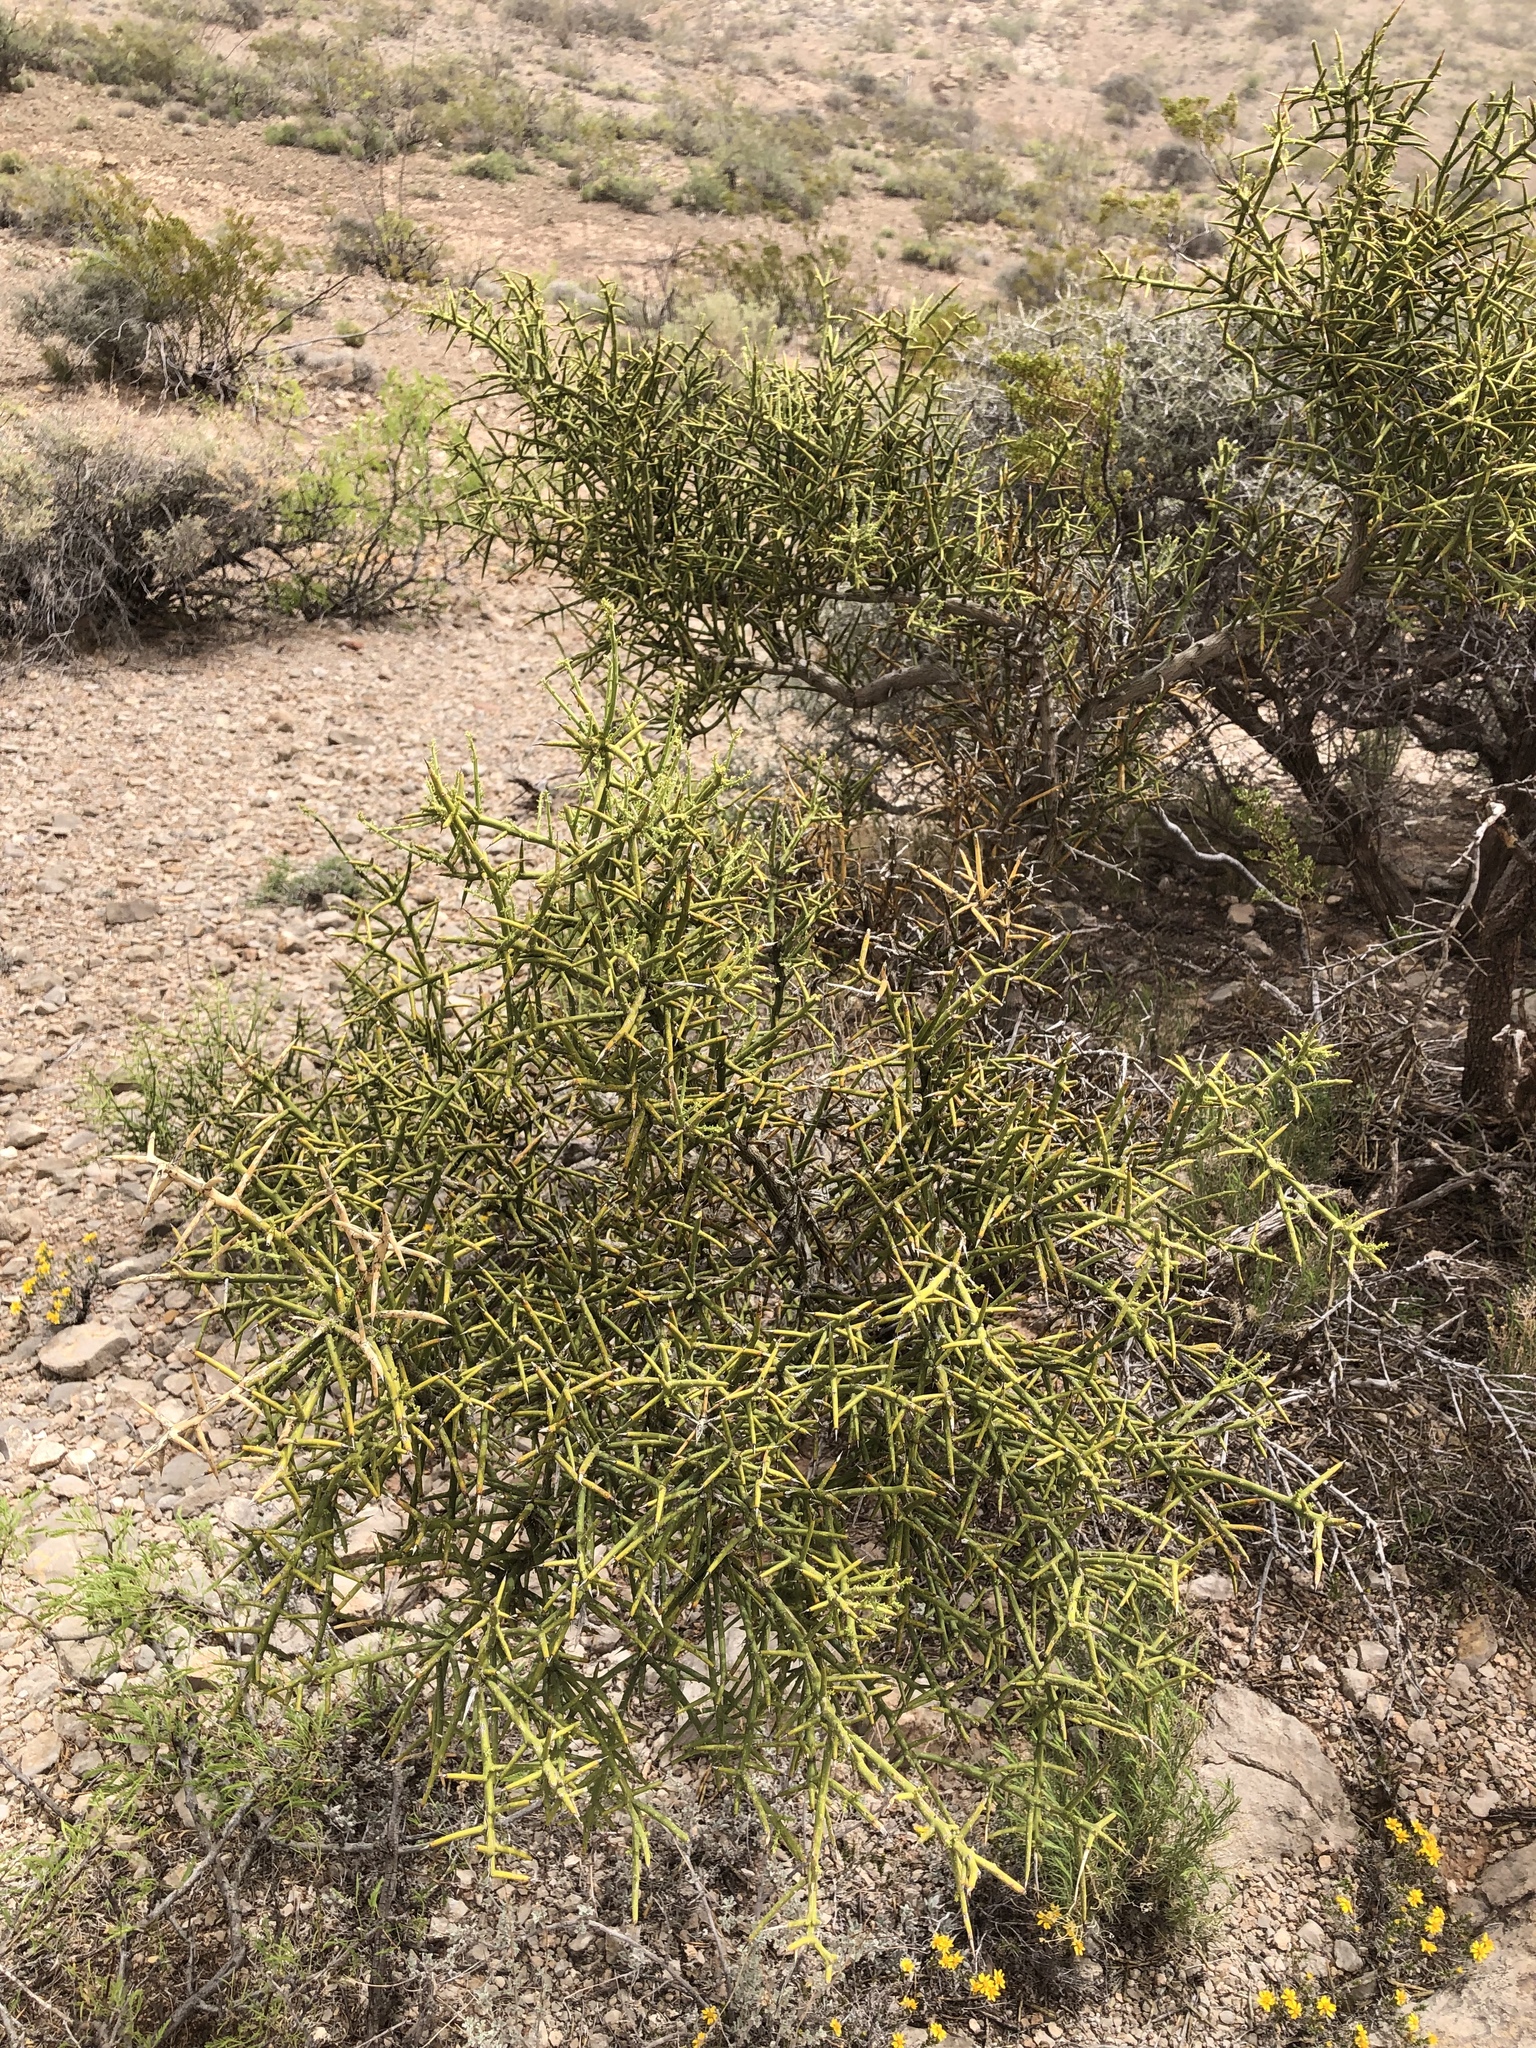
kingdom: Plantae
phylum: Tracheophyta
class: Magnoliopsida
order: Brassicales
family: Koeberliniaceae
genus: Koeberlinia
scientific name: Koeberlinia spinosa
